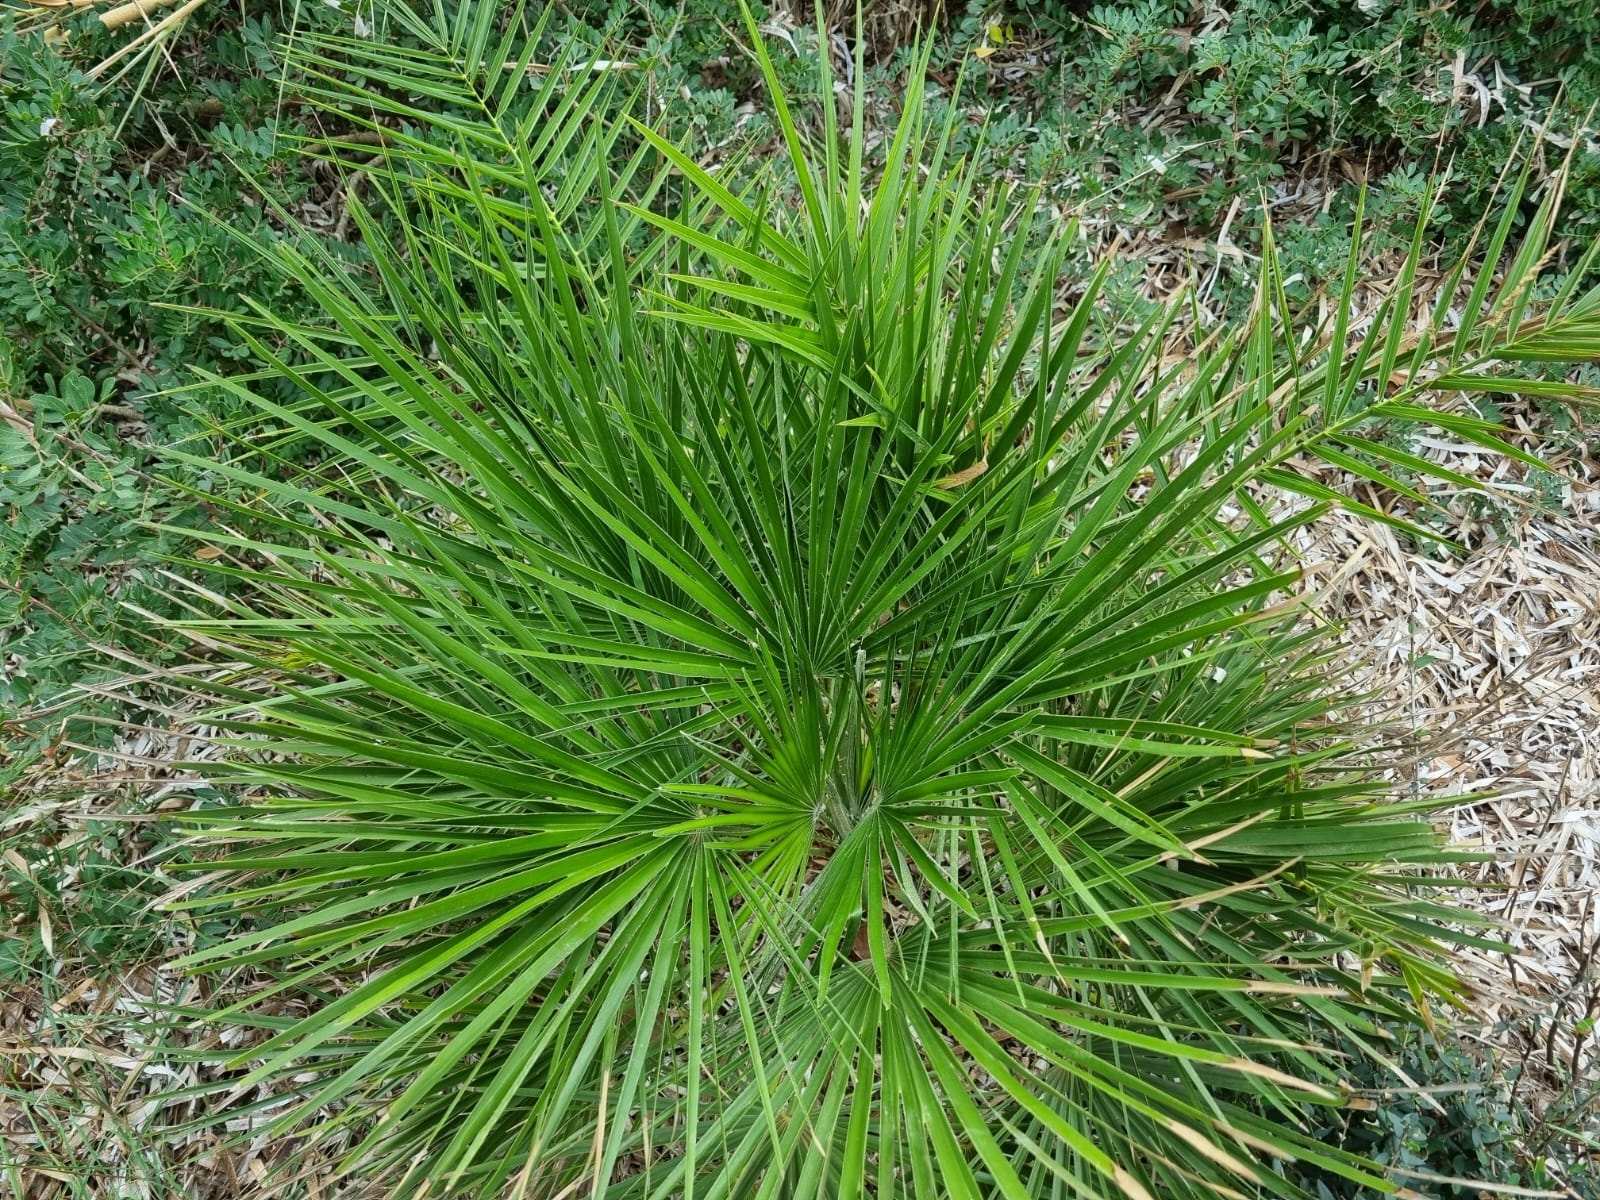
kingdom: Plantae
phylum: Tracheophyta
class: Liliopsida
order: Arecales
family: Arecaceae
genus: Chamaerops
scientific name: Chamaerops humilis
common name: Dwarf fan palm
